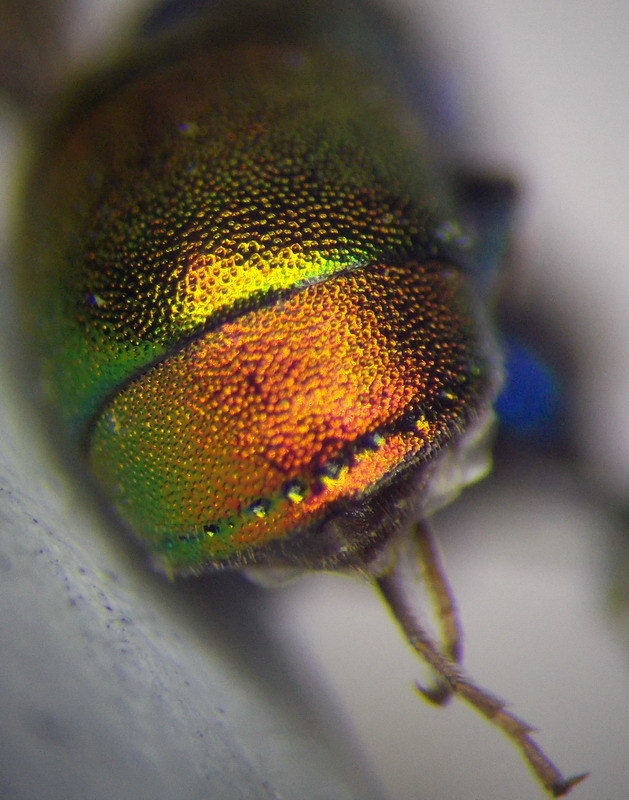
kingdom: Animalia
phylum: Arthropoda
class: Insecta
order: Hymenoptera
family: Chrysididae
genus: Pseudospinolia
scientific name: Pseudospinolia neglecta
